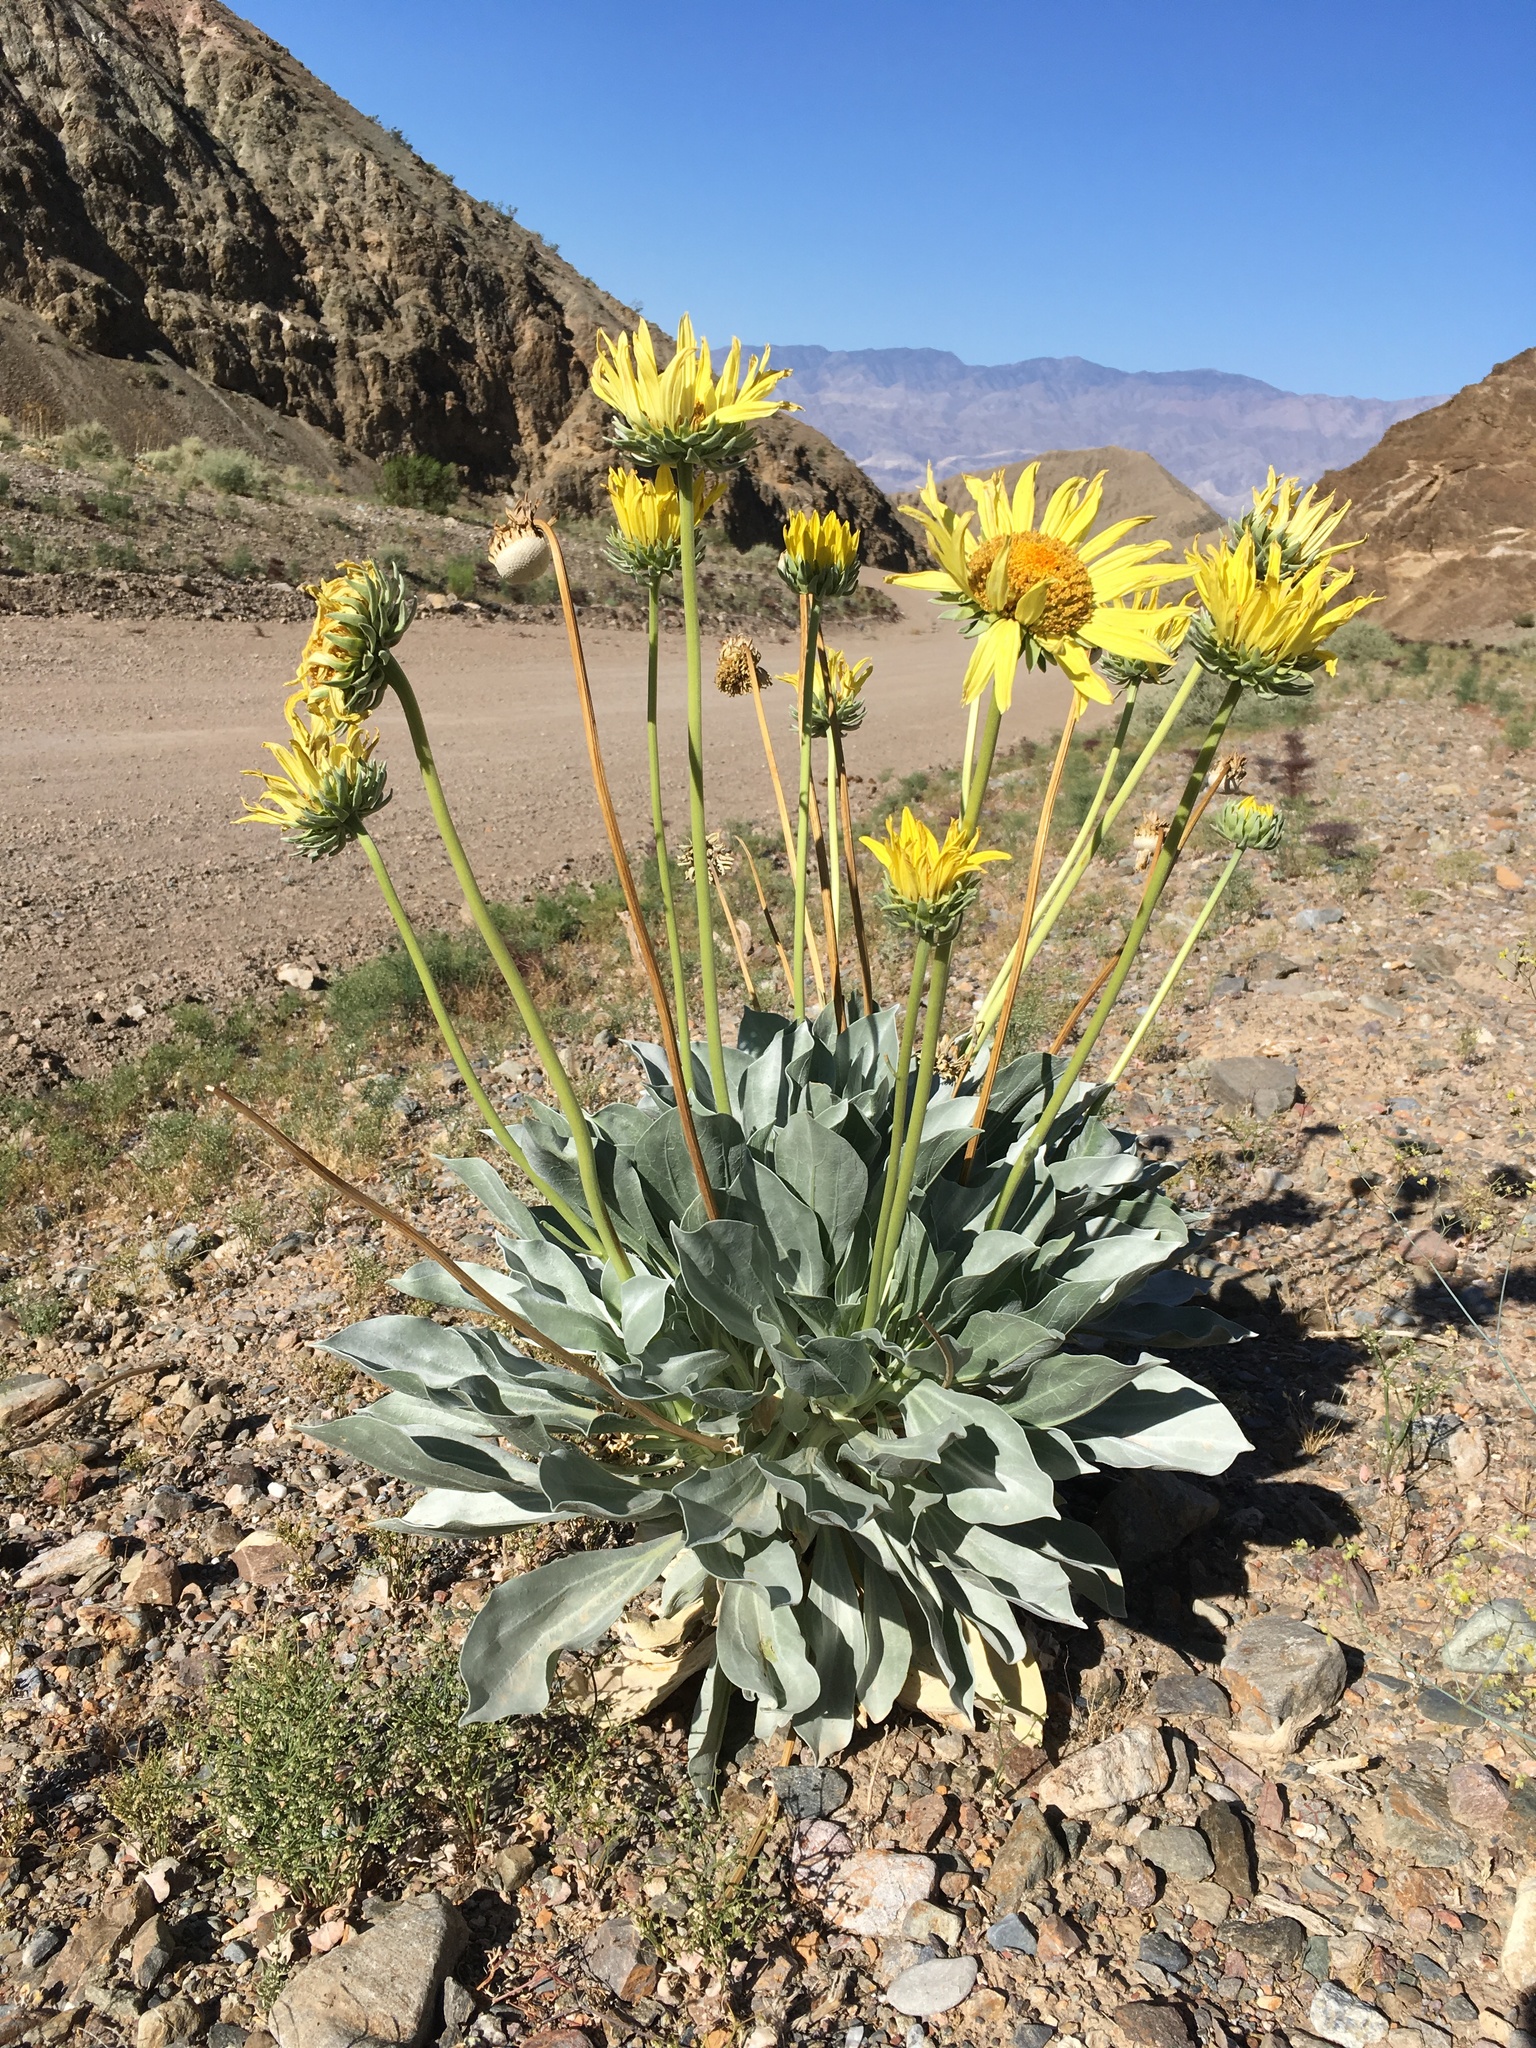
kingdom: Plantae
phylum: Tracheophyta
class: Magnoliopsida
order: Asterales
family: Asteraceae
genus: Enceliopsis
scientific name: Enceliopsis covillei
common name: Panamint daisy
